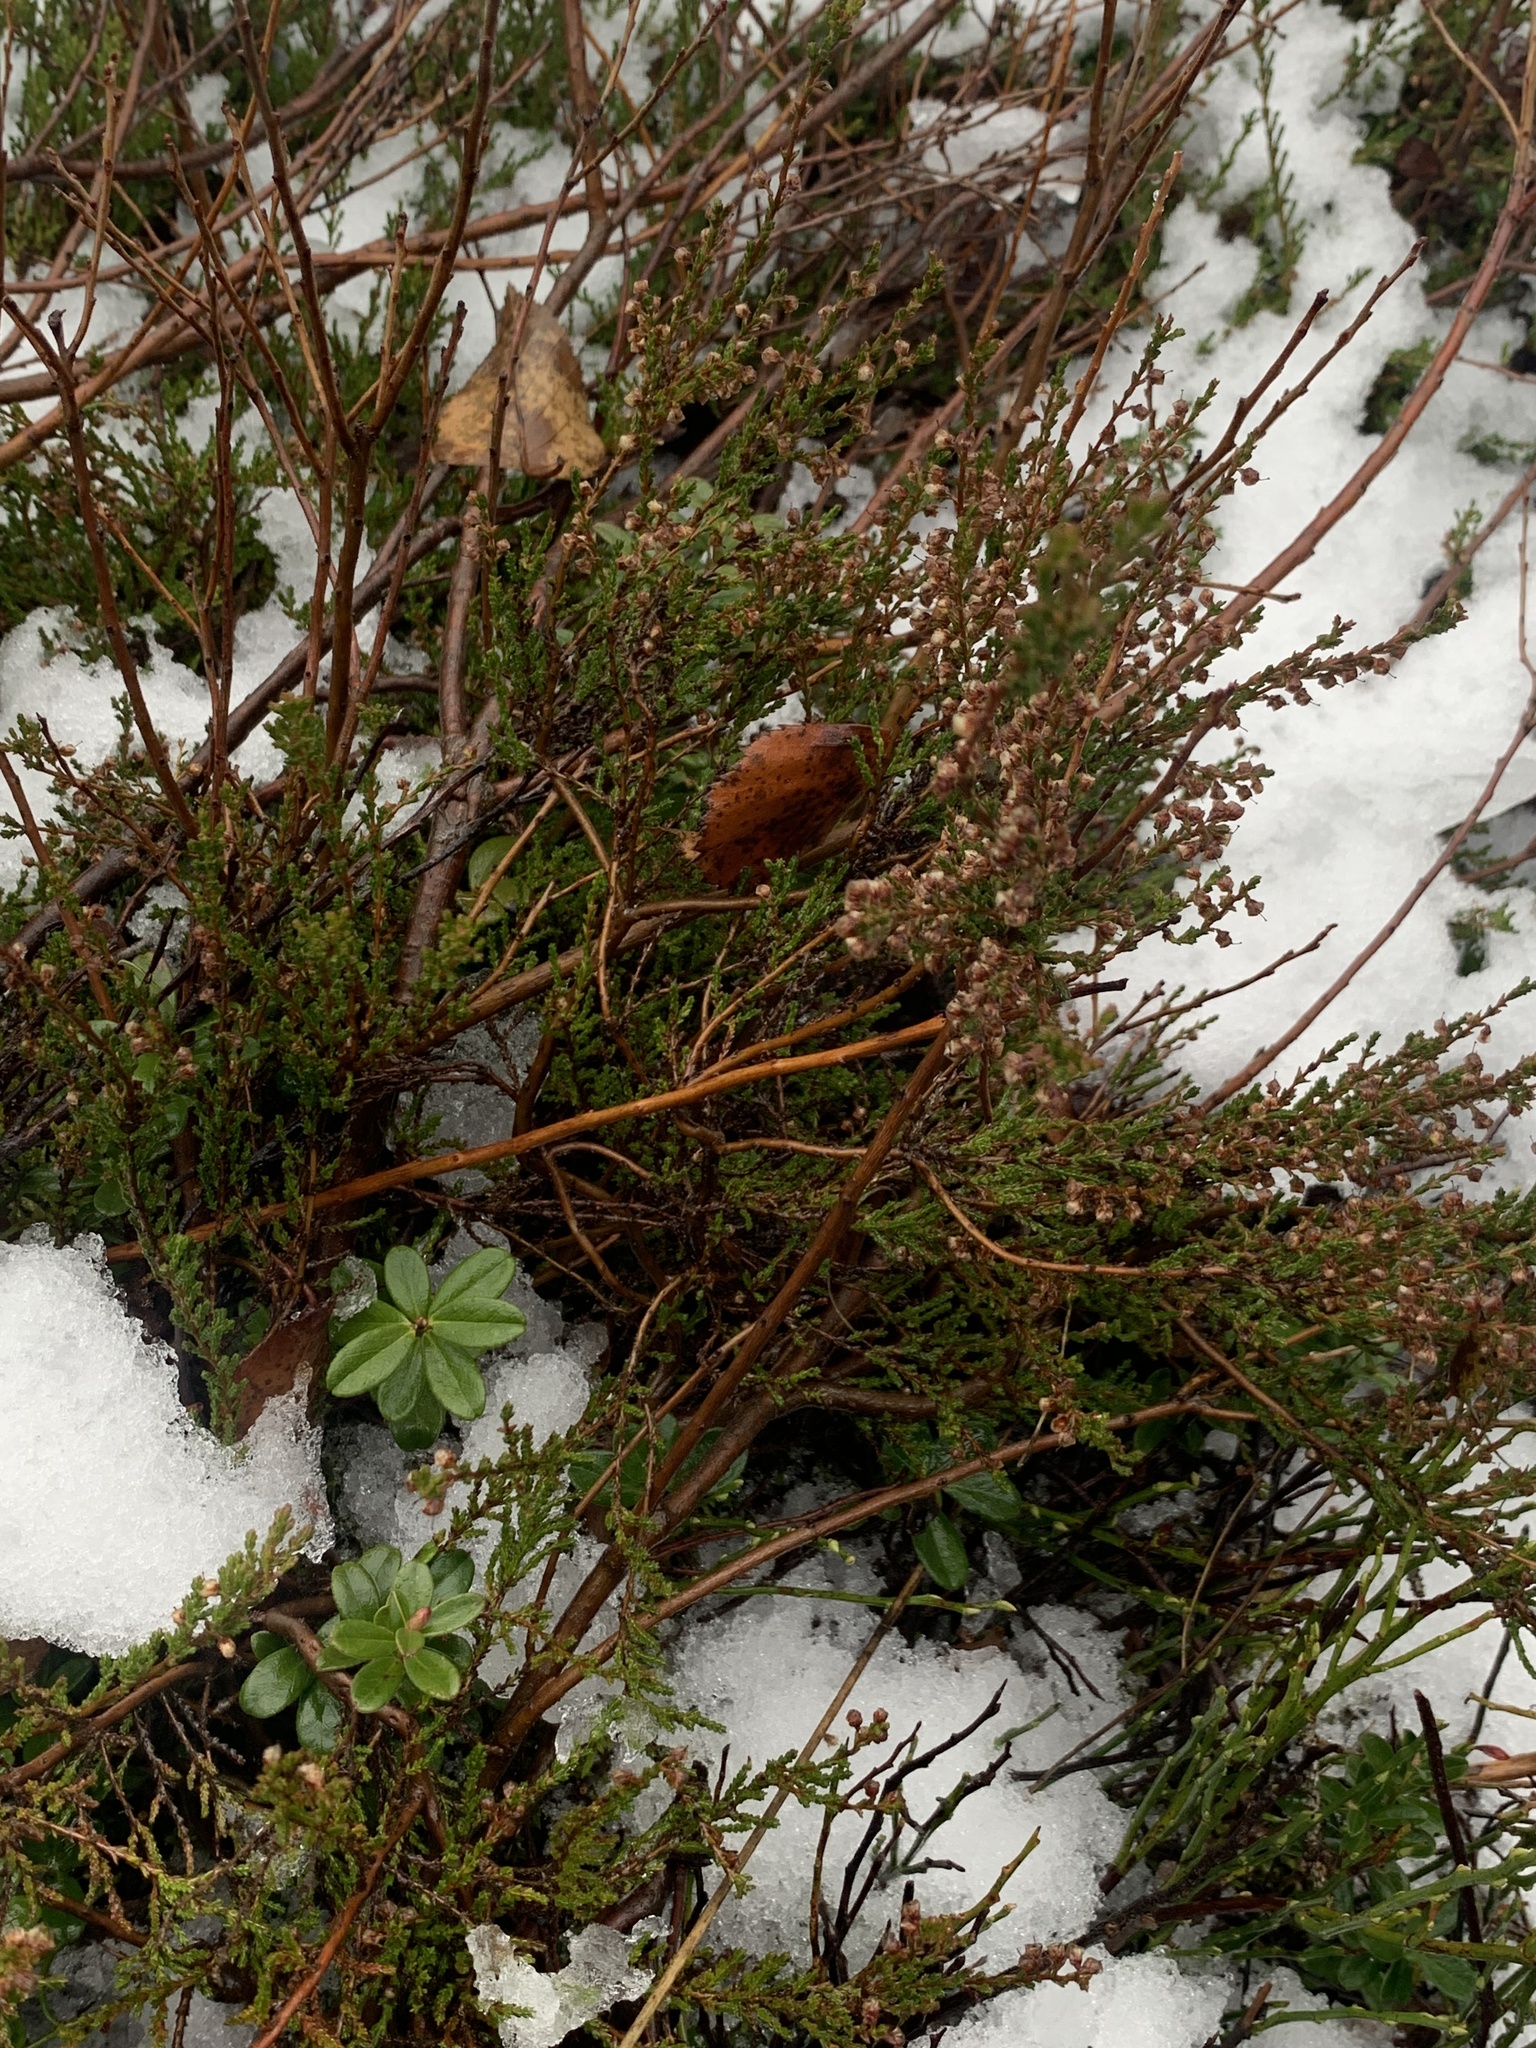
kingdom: Plantae
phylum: Tracheophyta
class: Magnoliopsida
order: Ericales
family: Ericaceae
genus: Calluna
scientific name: Calluna vulgaris
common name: Heather
